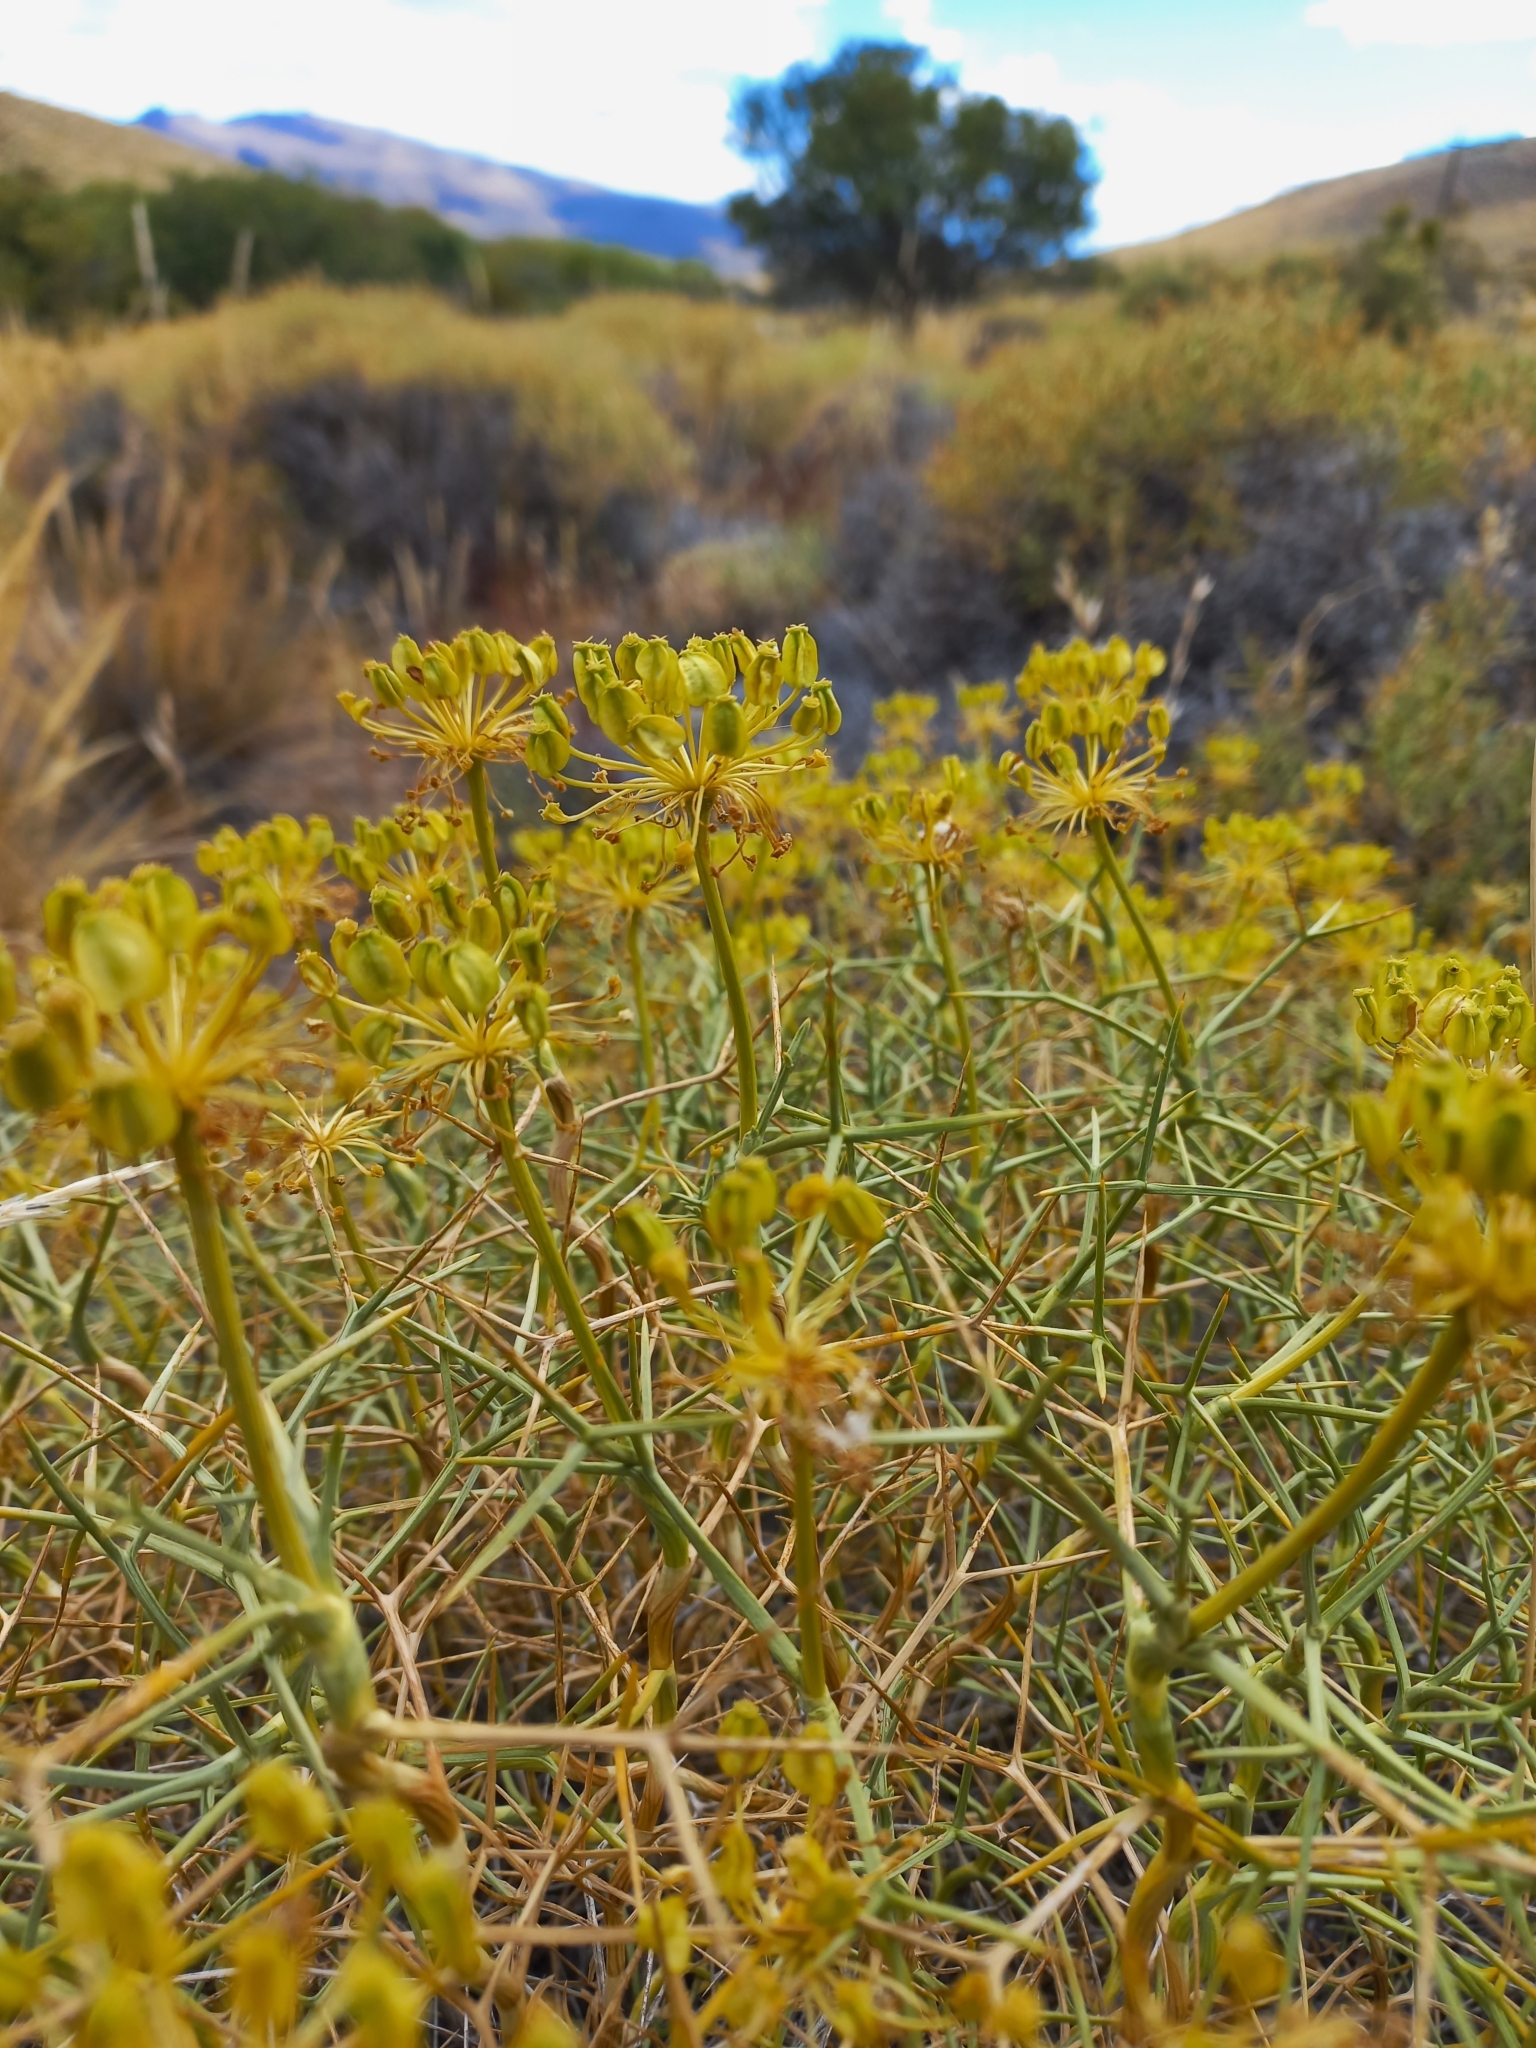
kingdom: Plantae
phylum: Tracheophyta
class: Magnoliopsida
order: Apiales
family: Apiaceae
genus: Azorella
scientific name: Azorella prolifera
